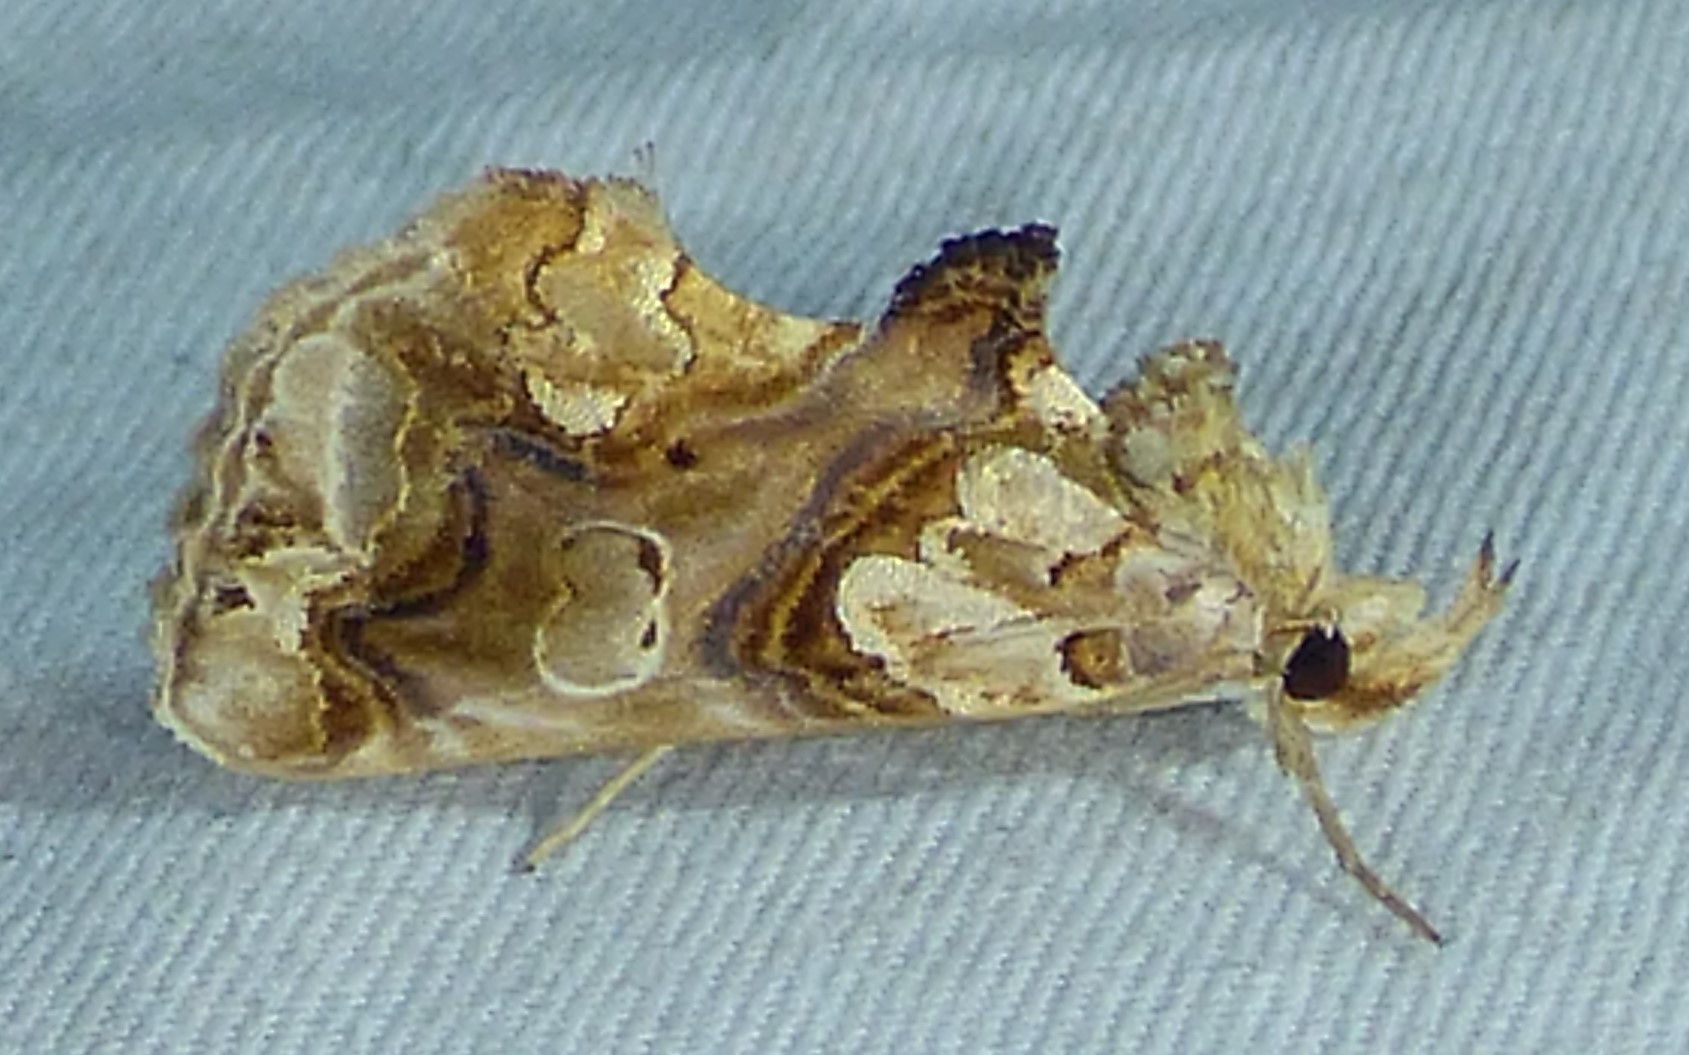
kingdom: Animalia
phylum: Arthropoda
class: Insecta
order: Lepidoptera
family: Erebidae
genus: Plusiodonta
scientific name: Plusiodonta compressipalpis
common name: Moonseed moth
